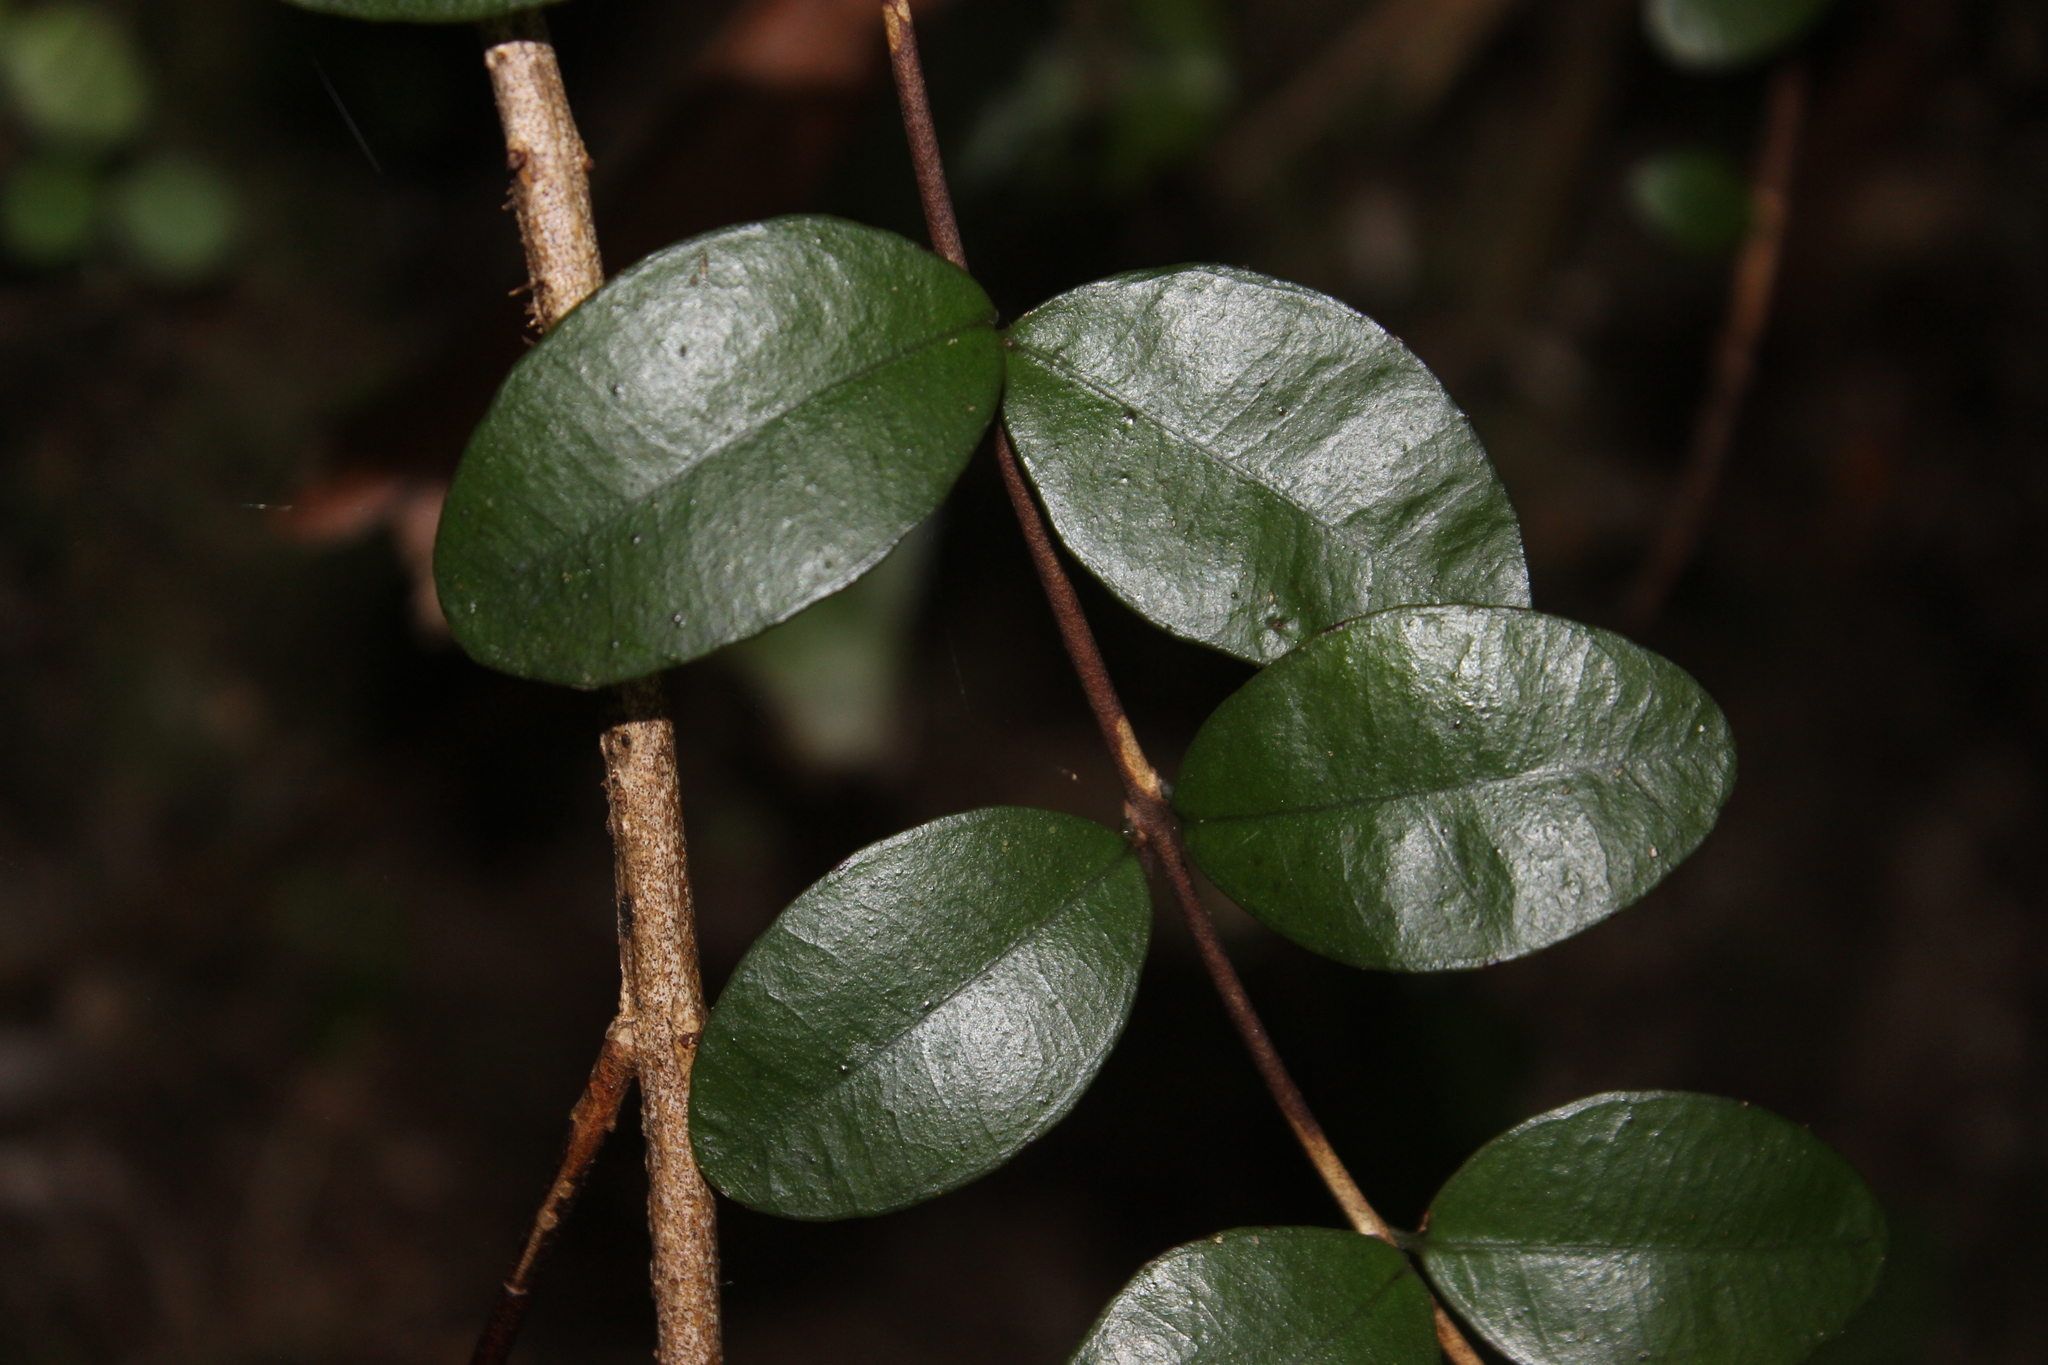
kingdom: Plantae
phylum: Tracheophyta
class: Magnoliopsida
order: Myrtales
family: Myrtaceae
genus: Metrosideros
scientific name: Metrosideros fulgens
